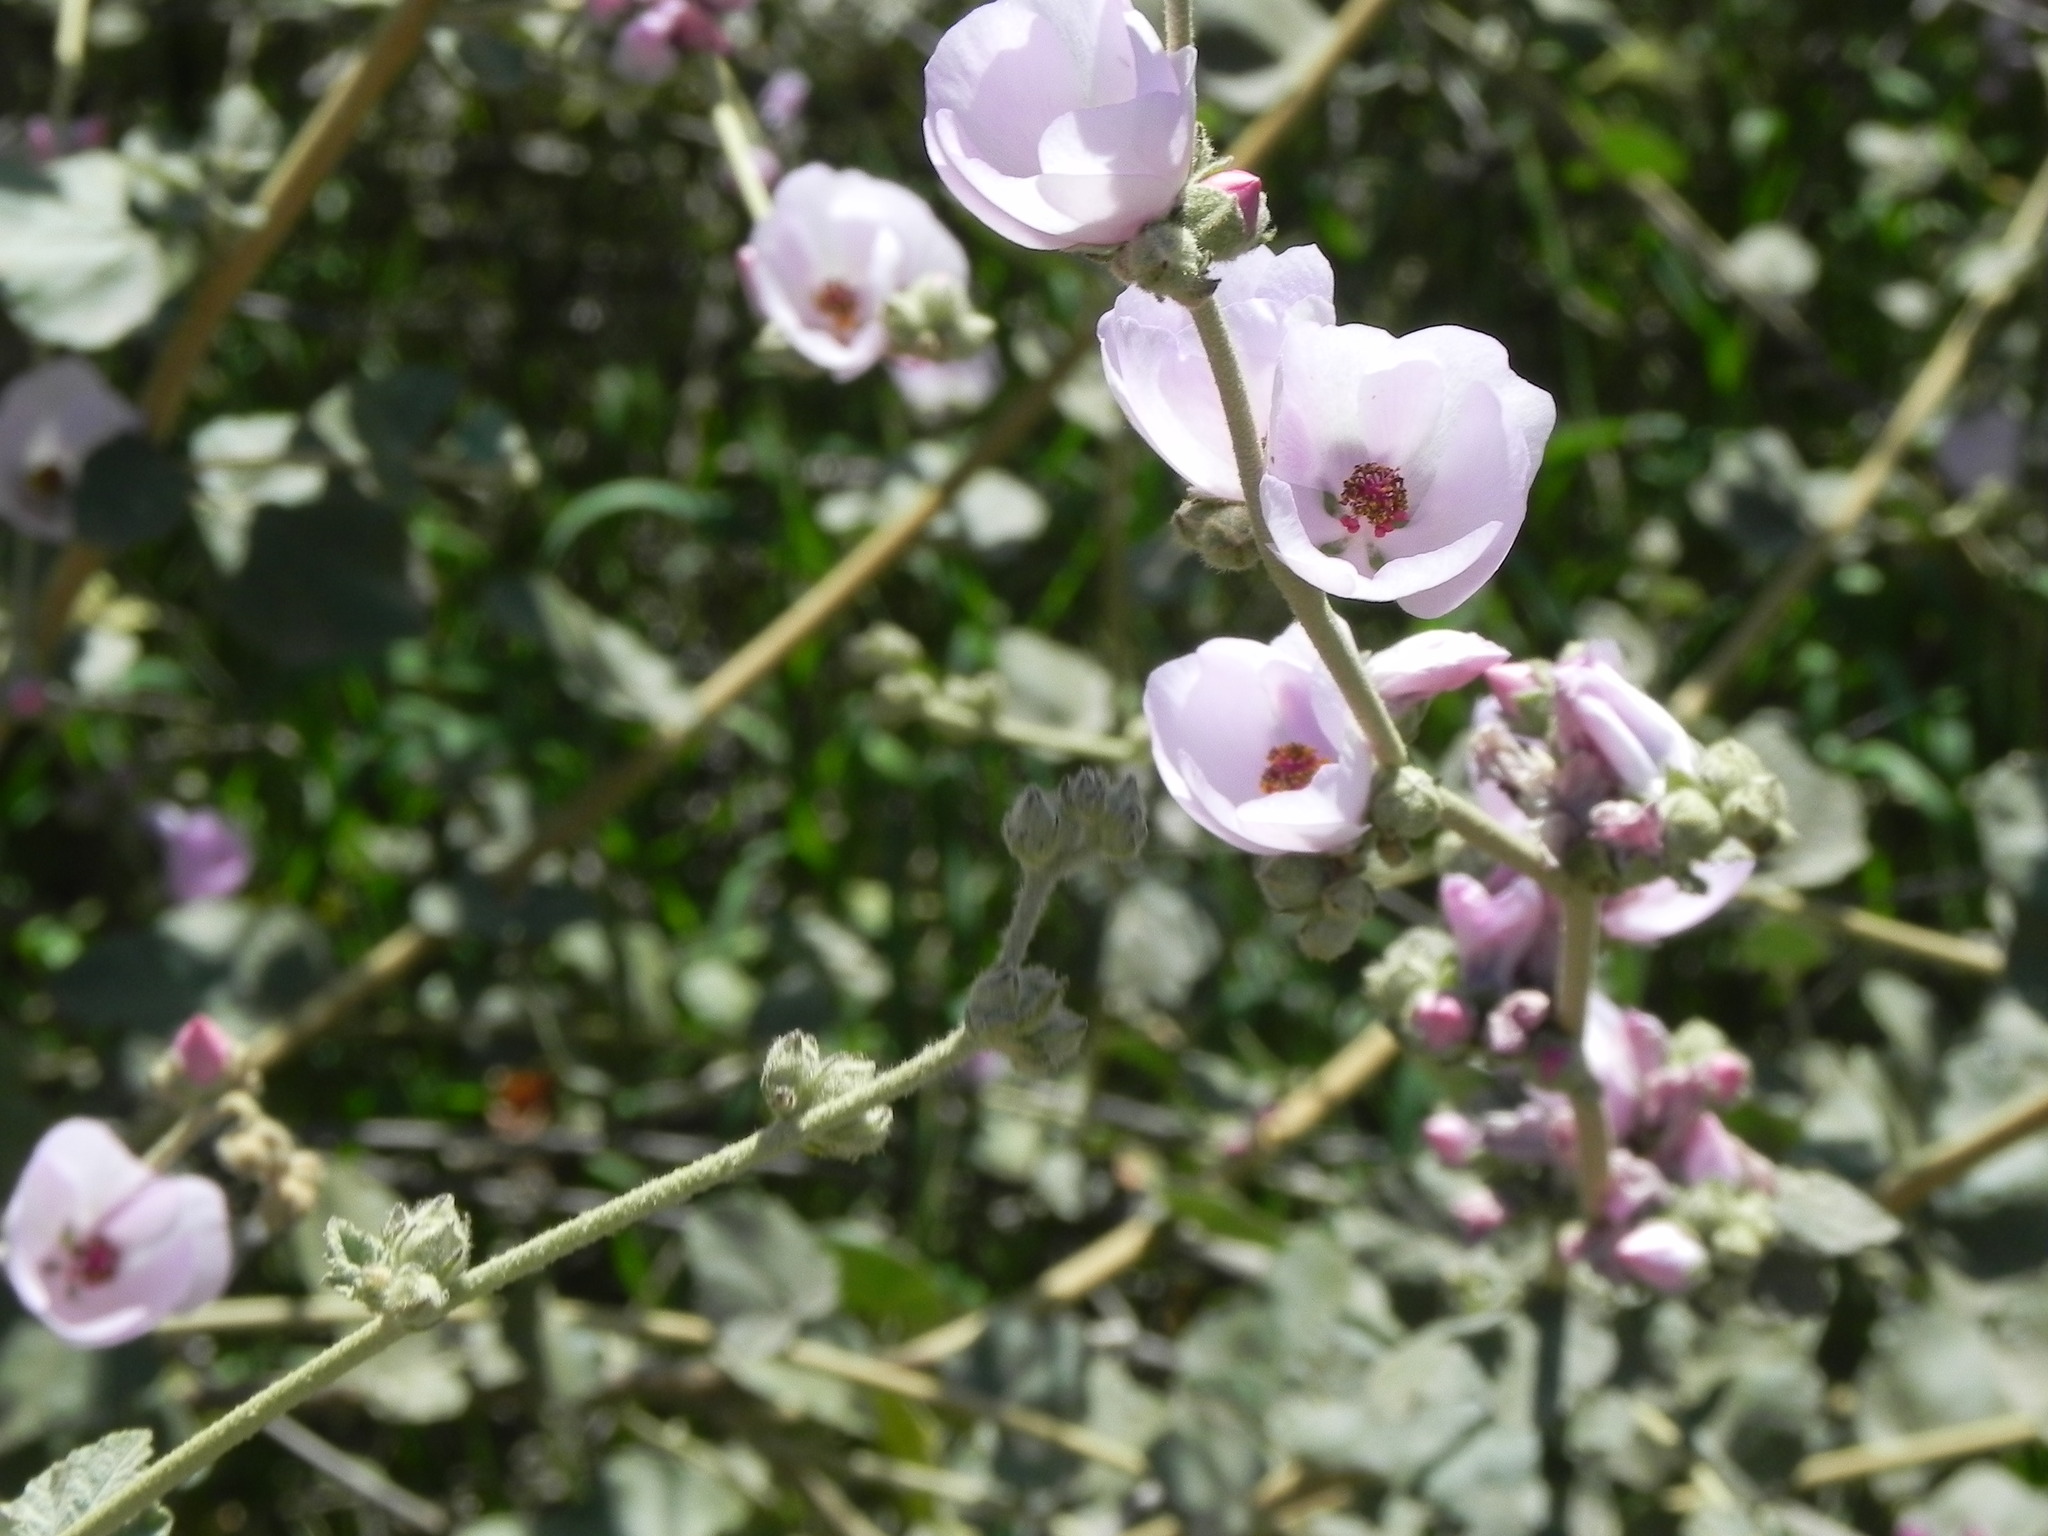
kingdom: Plantae
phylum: Tracheophyta
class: Magnoliopsida
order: Malvales
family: Malvaceae
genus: Malacothamnus
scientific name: Malacothamnus fasciculatus
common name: Sant cruz island bush-mallow
